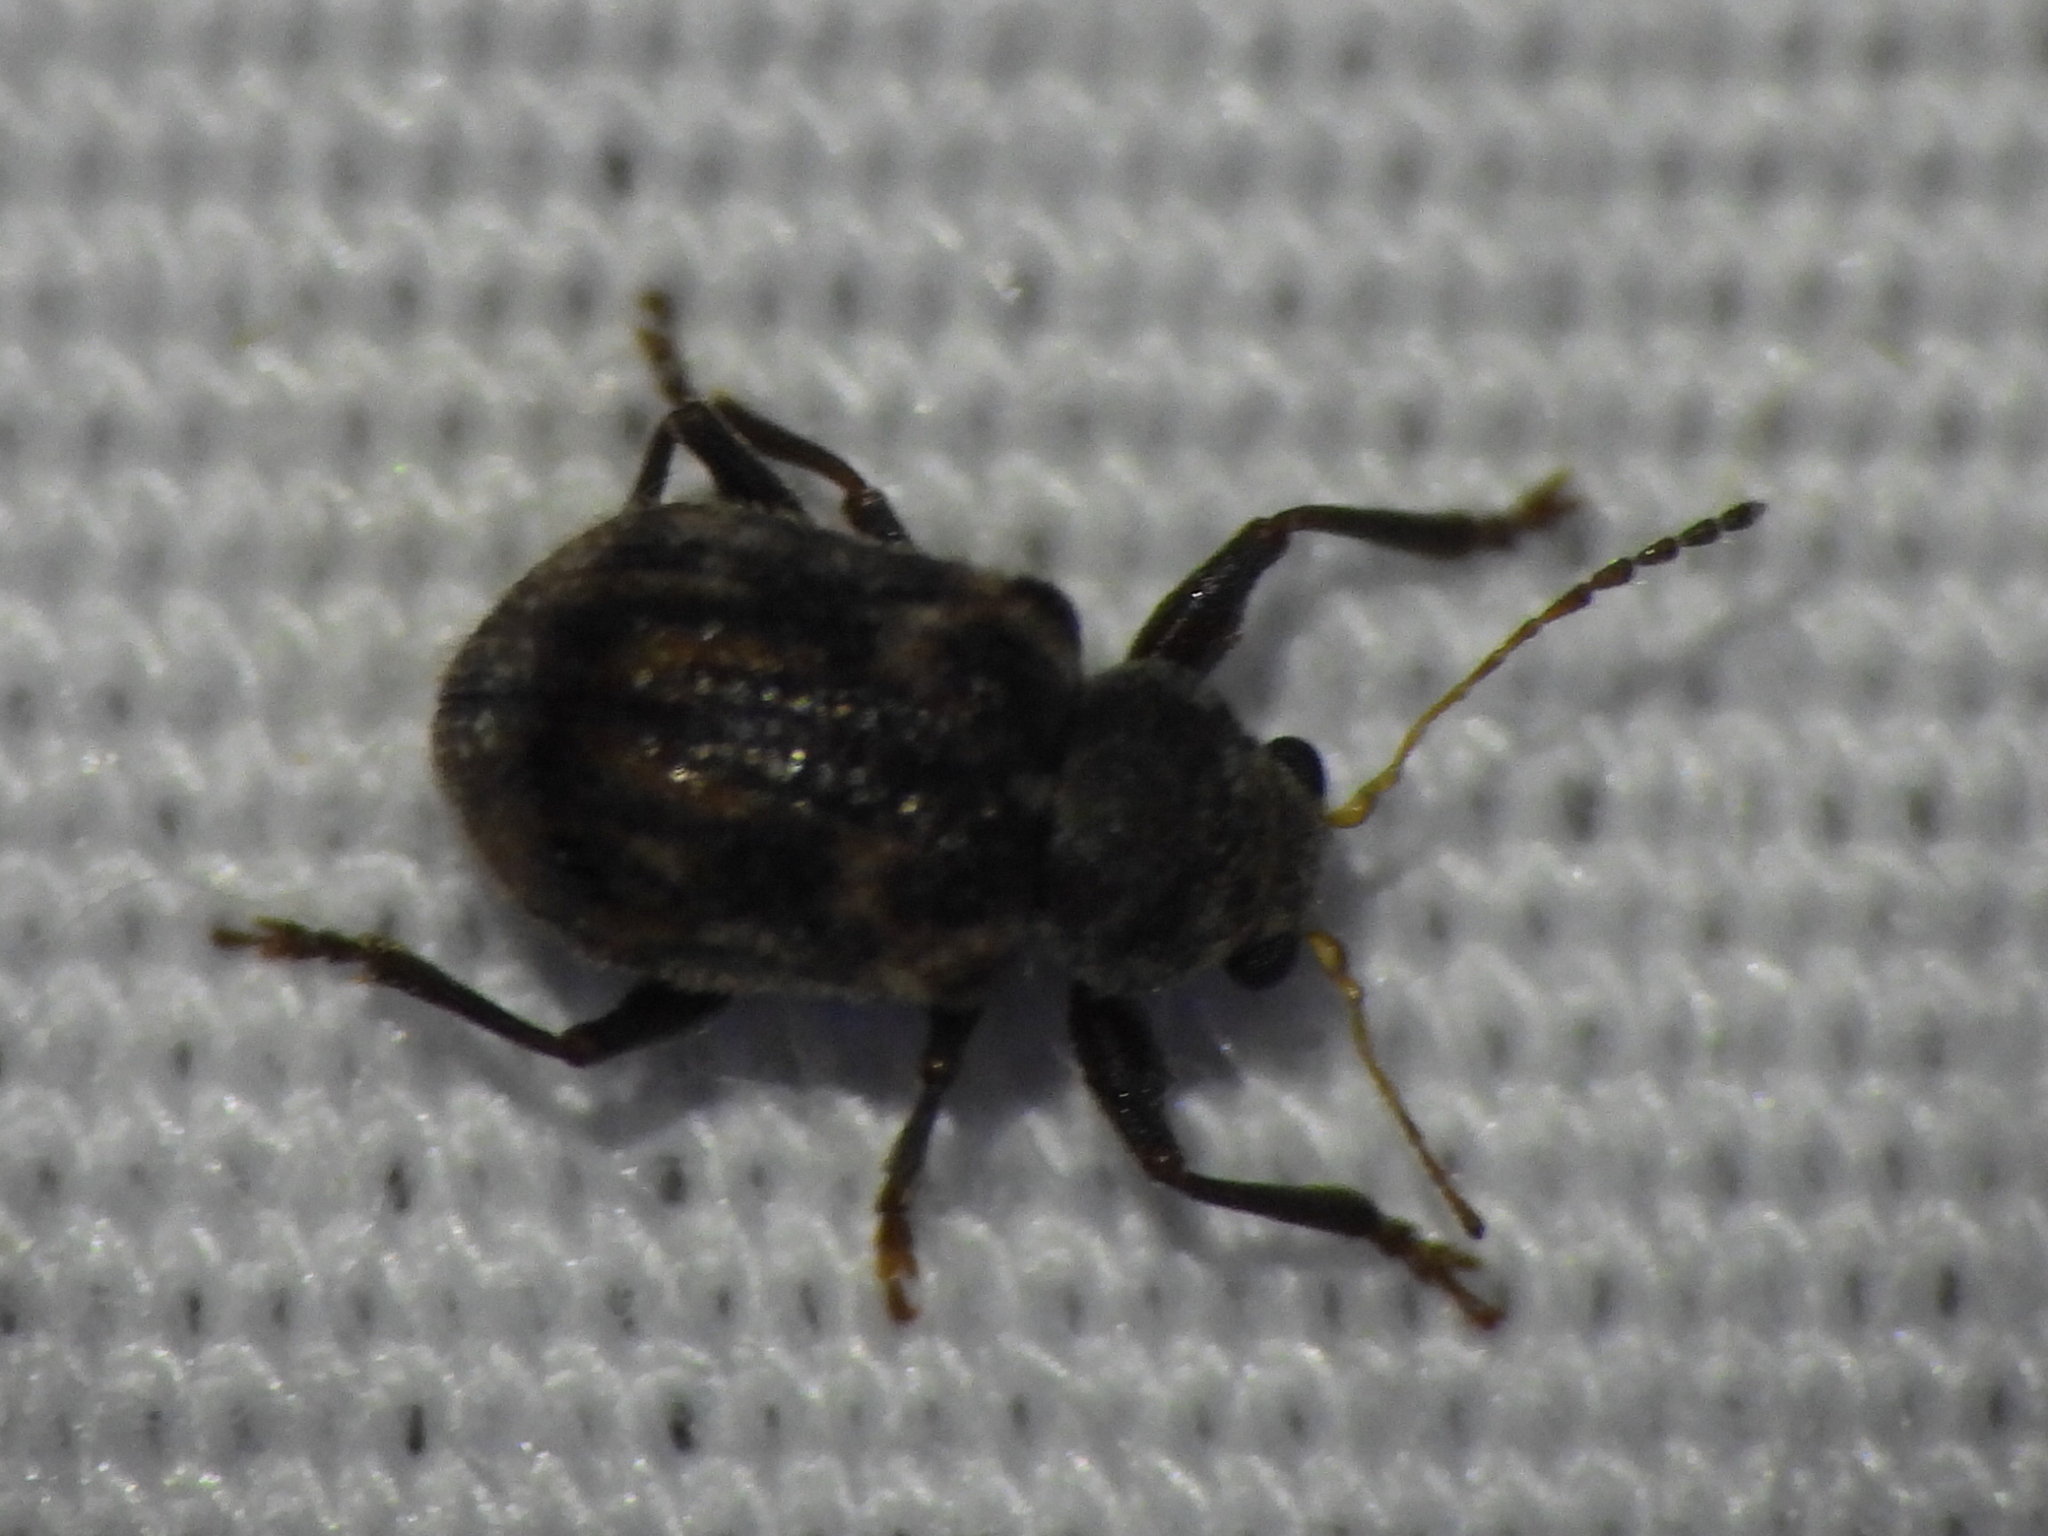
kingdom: Animalia
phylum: Arthropoda
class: Insecta
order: Coleoptera
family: Chrysomelidae
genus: Xanthonia
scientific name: Xanthonia picturata
